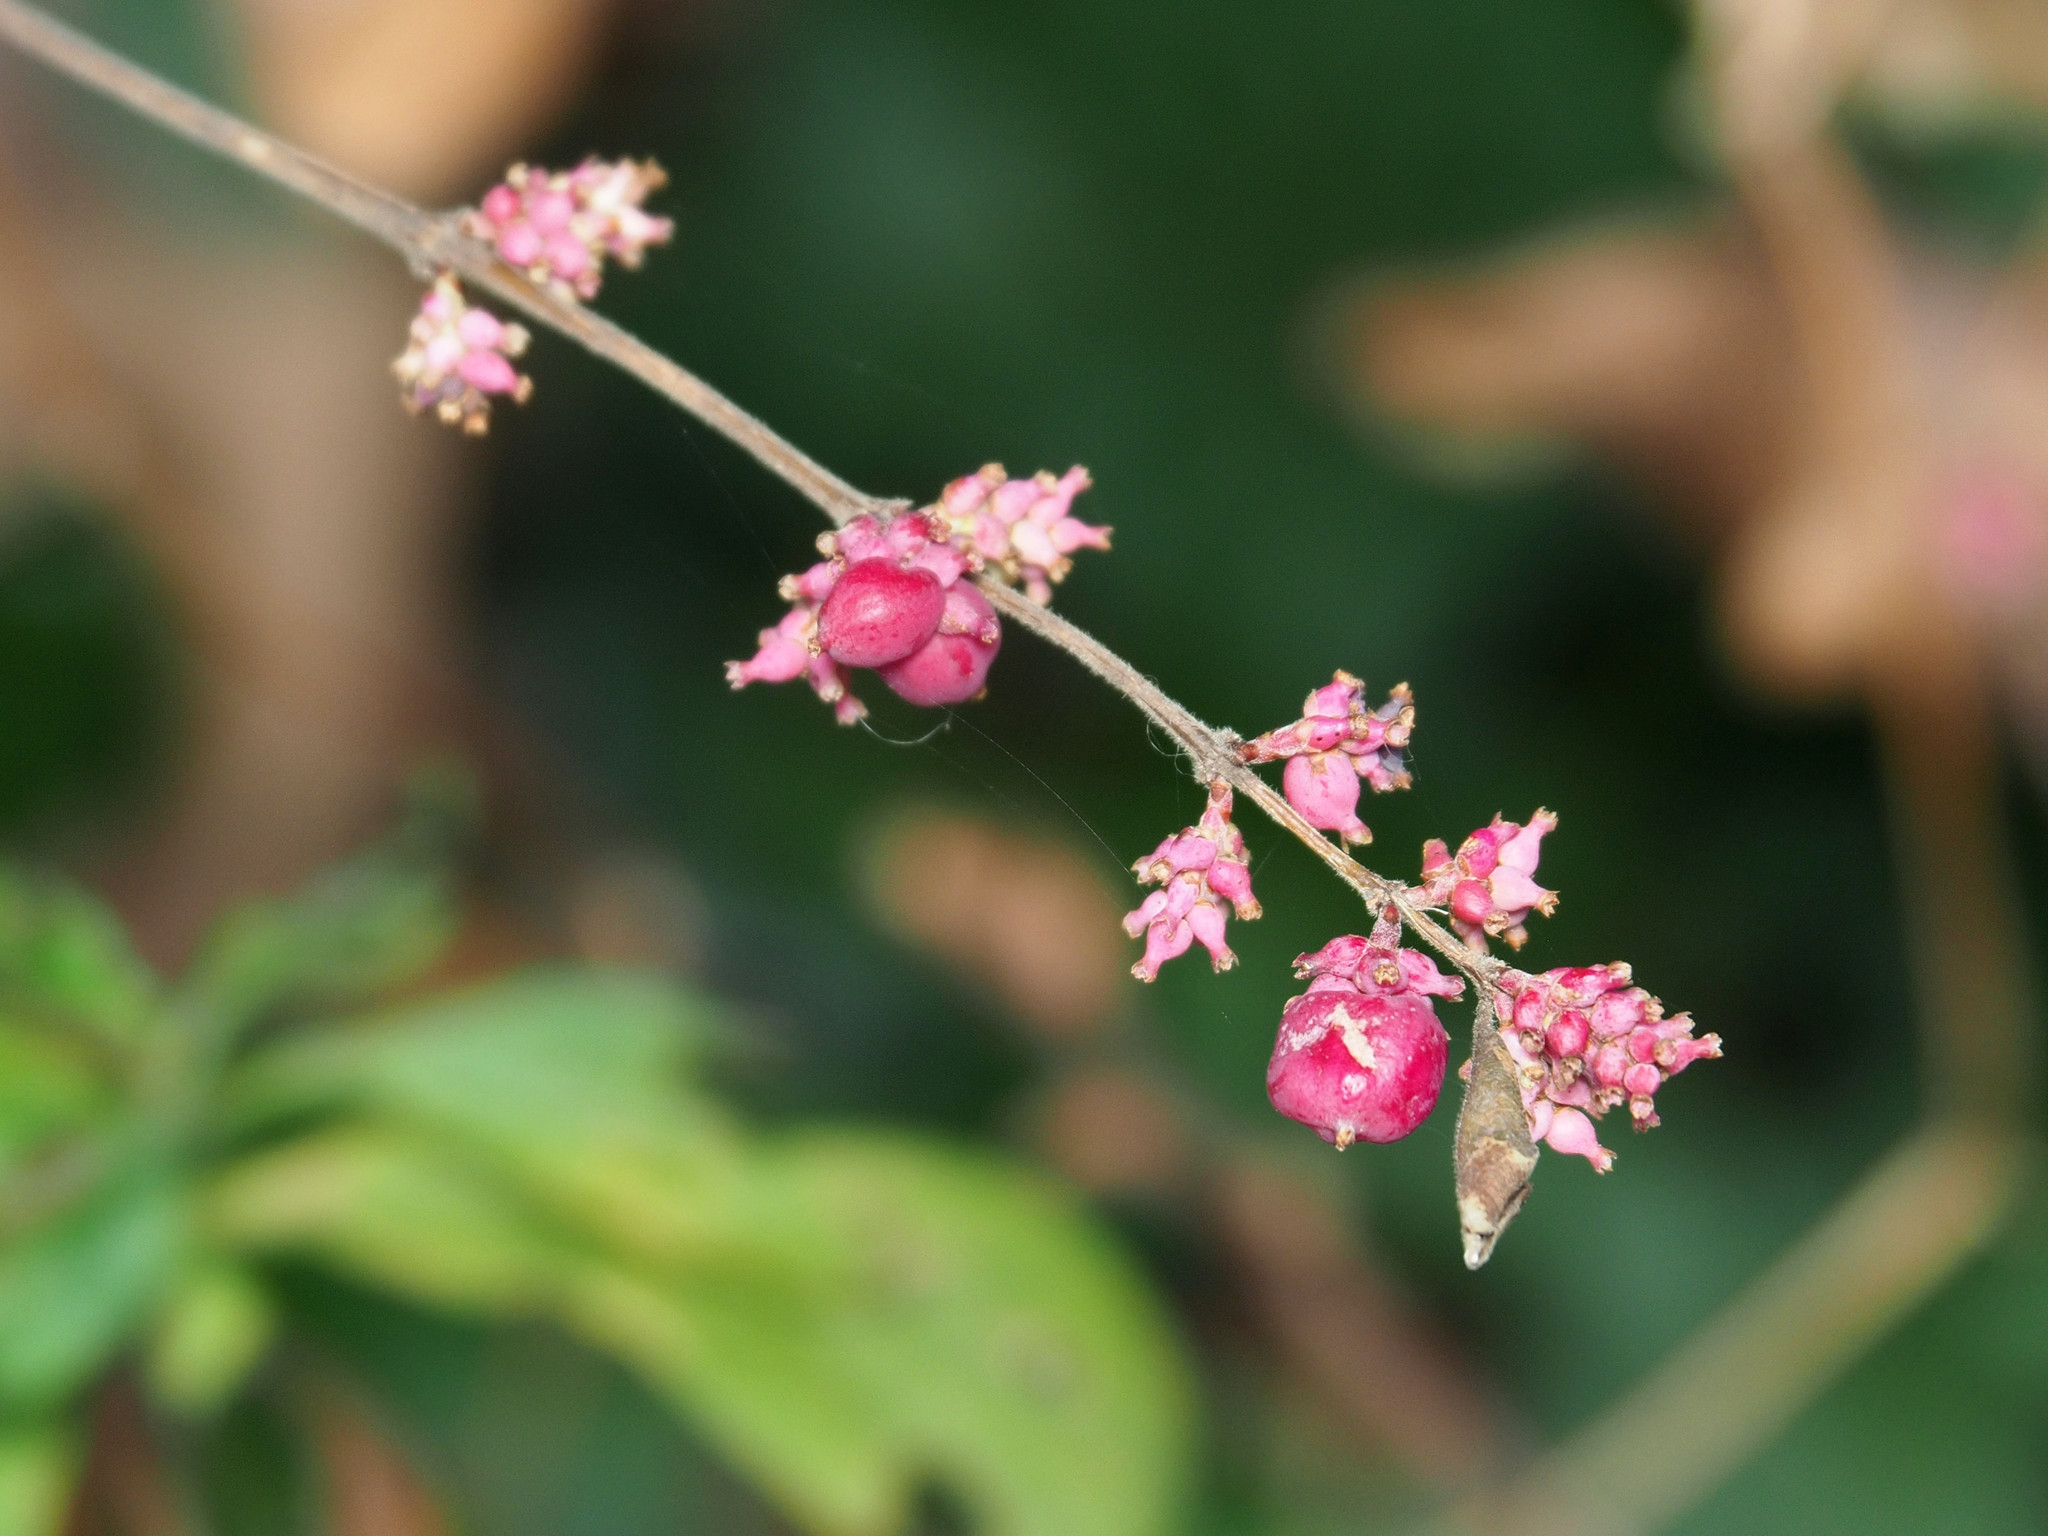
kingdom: Plantae
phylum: Tracheophyta
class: Magnoliopsida
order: Dipsacales
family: Caprifoliaceae
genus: Symphoricarpos
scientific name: Symphoricarpos orbiculatus
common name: Coralberry
